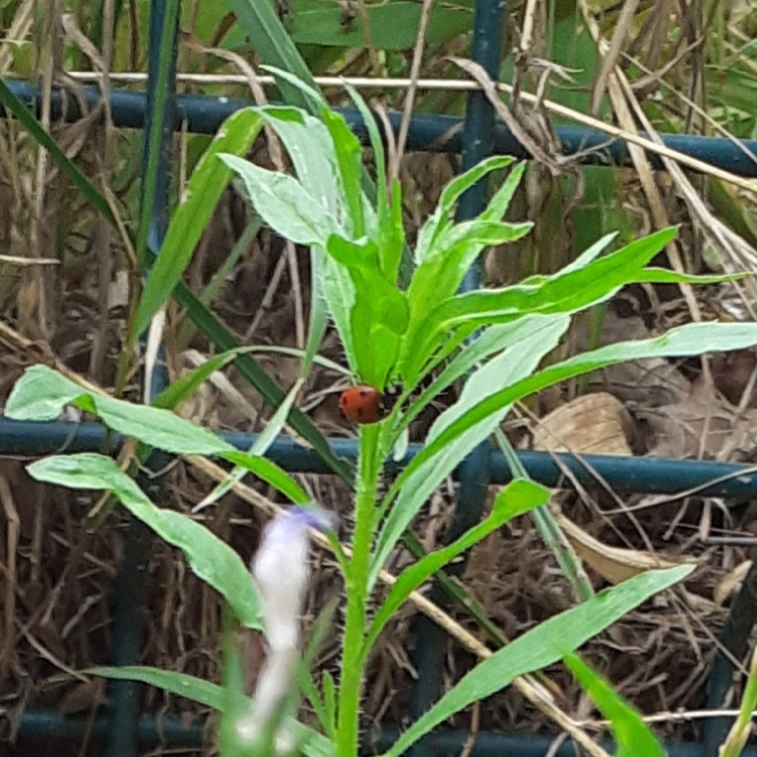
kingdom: Animalia
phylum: Arthropoda
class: Insecta
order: Coleoptera
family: Coccinellidae
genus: Coccinella
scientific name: Coccinella septempunctata
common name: Sevenspotted lady beetle
